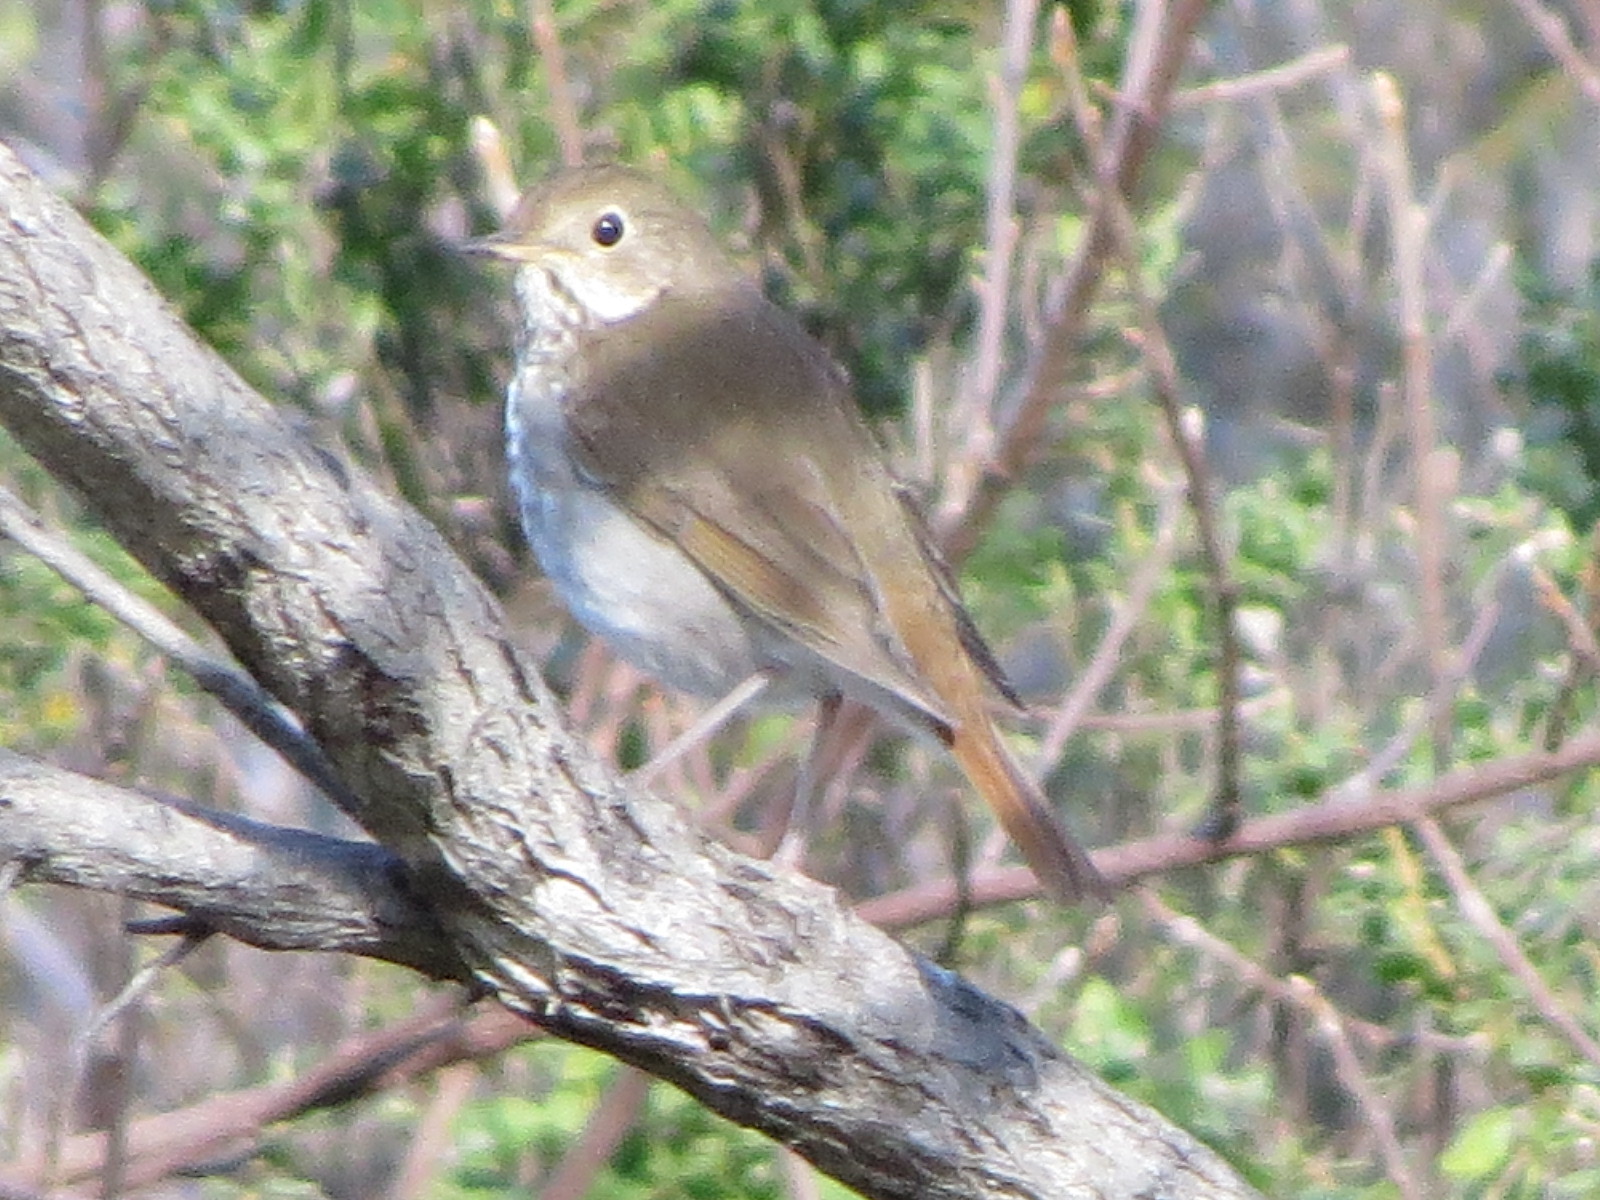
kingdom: Animalia
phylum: Chordata
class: Aves
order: Passeriformes
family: Turdidae
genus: Catharus
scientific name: Catharus guttatus
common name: Hermit thrush
